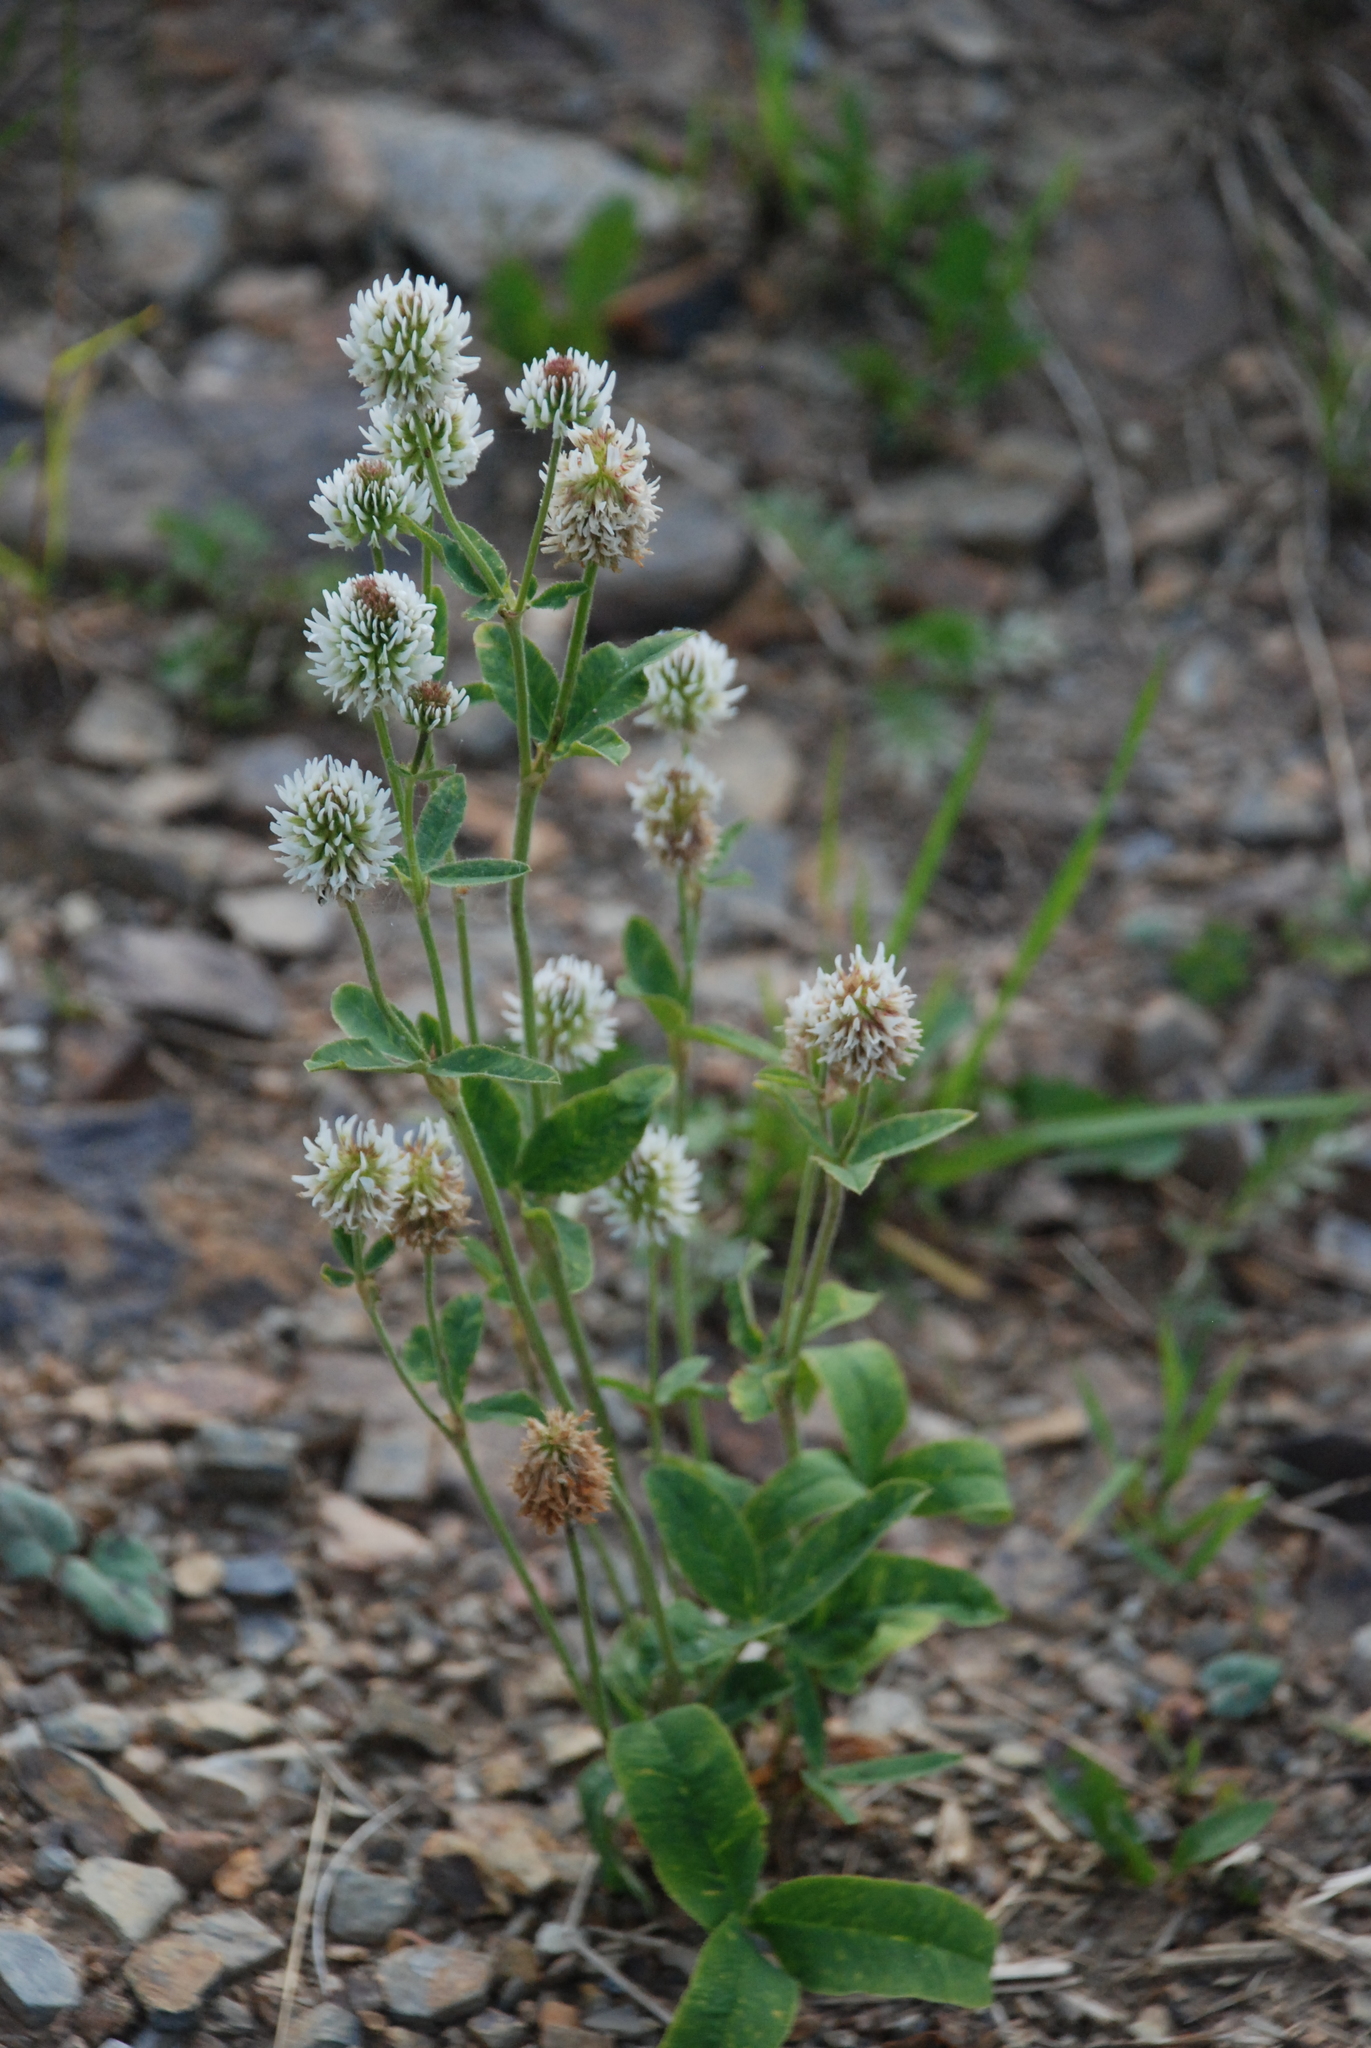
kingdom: Plantae
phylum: Tracheophyta
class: Magnoliopsida
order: Fabales
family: Fabaceae
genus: Trifolium
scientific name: Trifolium montanum
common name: Mountain clover
